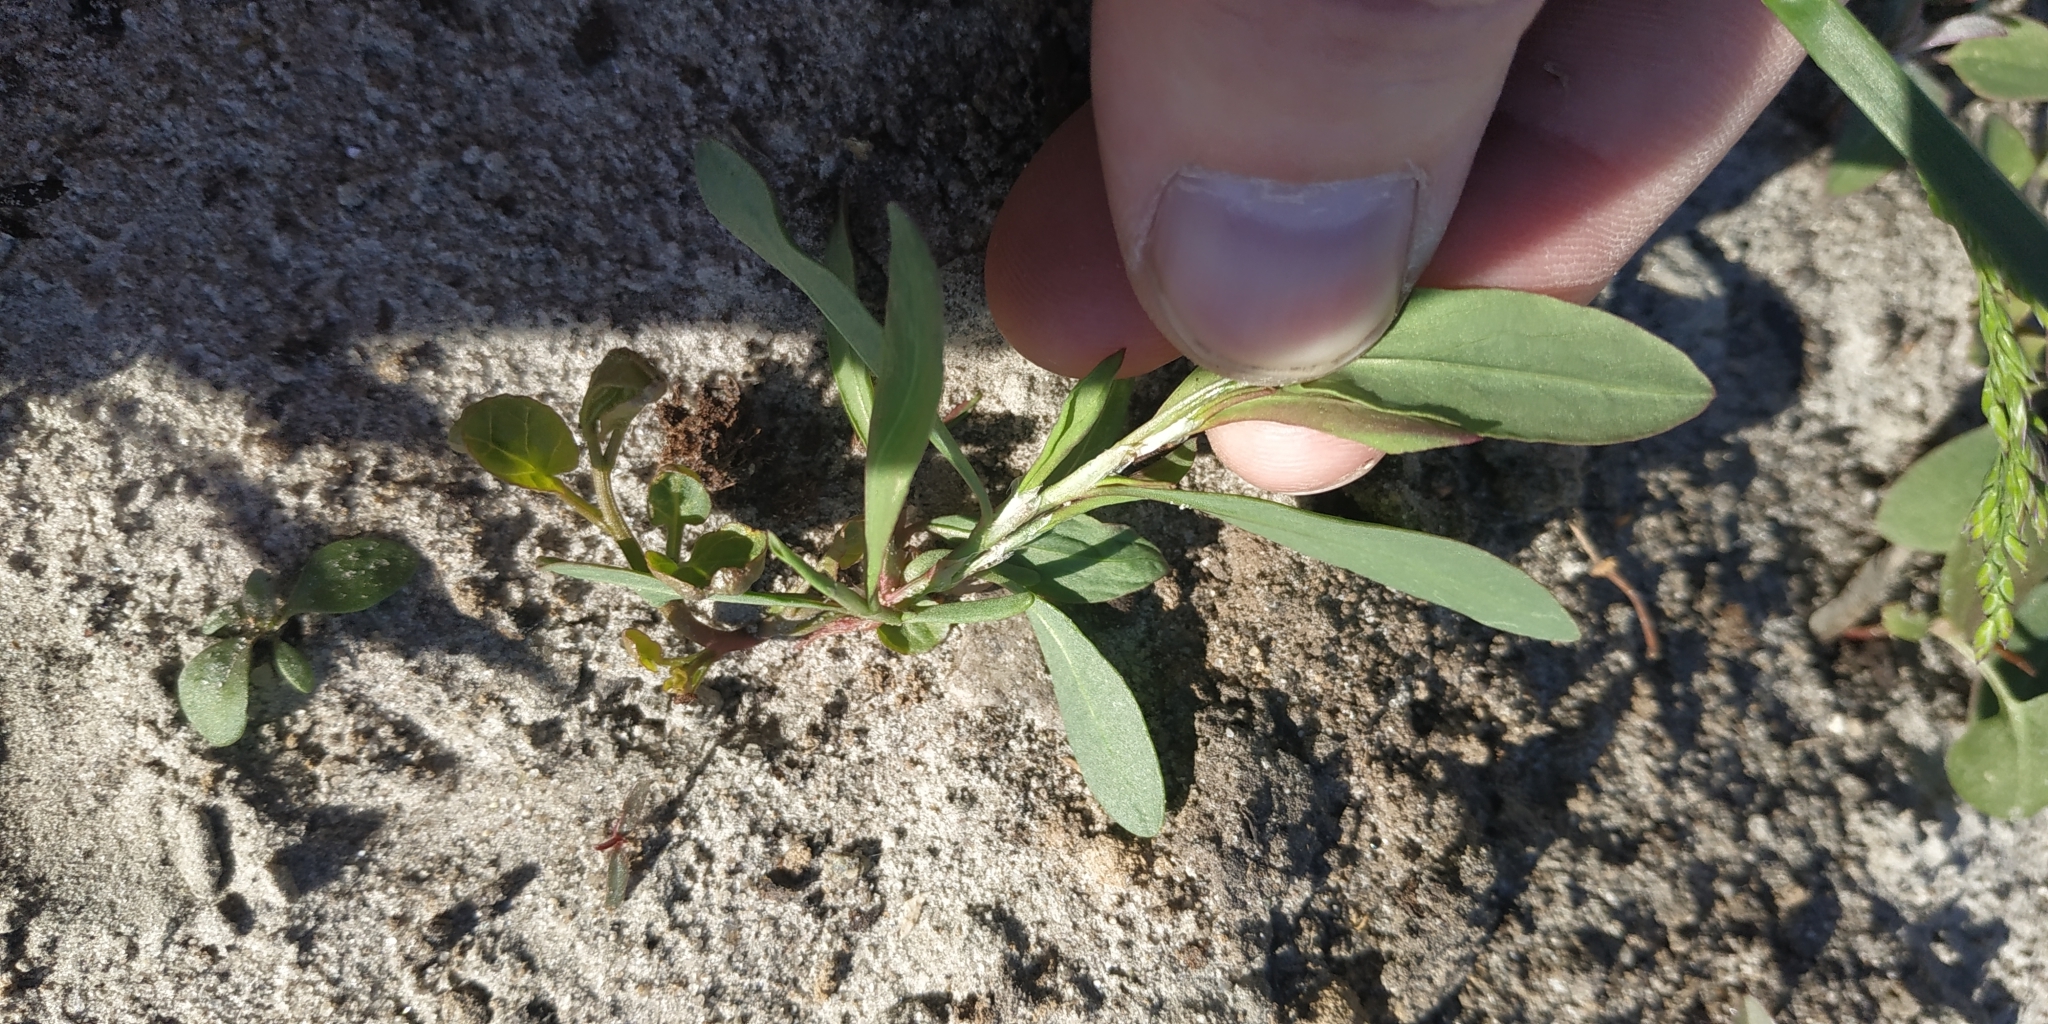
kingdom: Plantae
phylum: Tracheophyta
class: Magnoliopsida
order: Caryophyllales
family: Polygonaceae
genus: Polygonum
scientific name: Polygonum aviculare
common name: Prostrate knotweed
